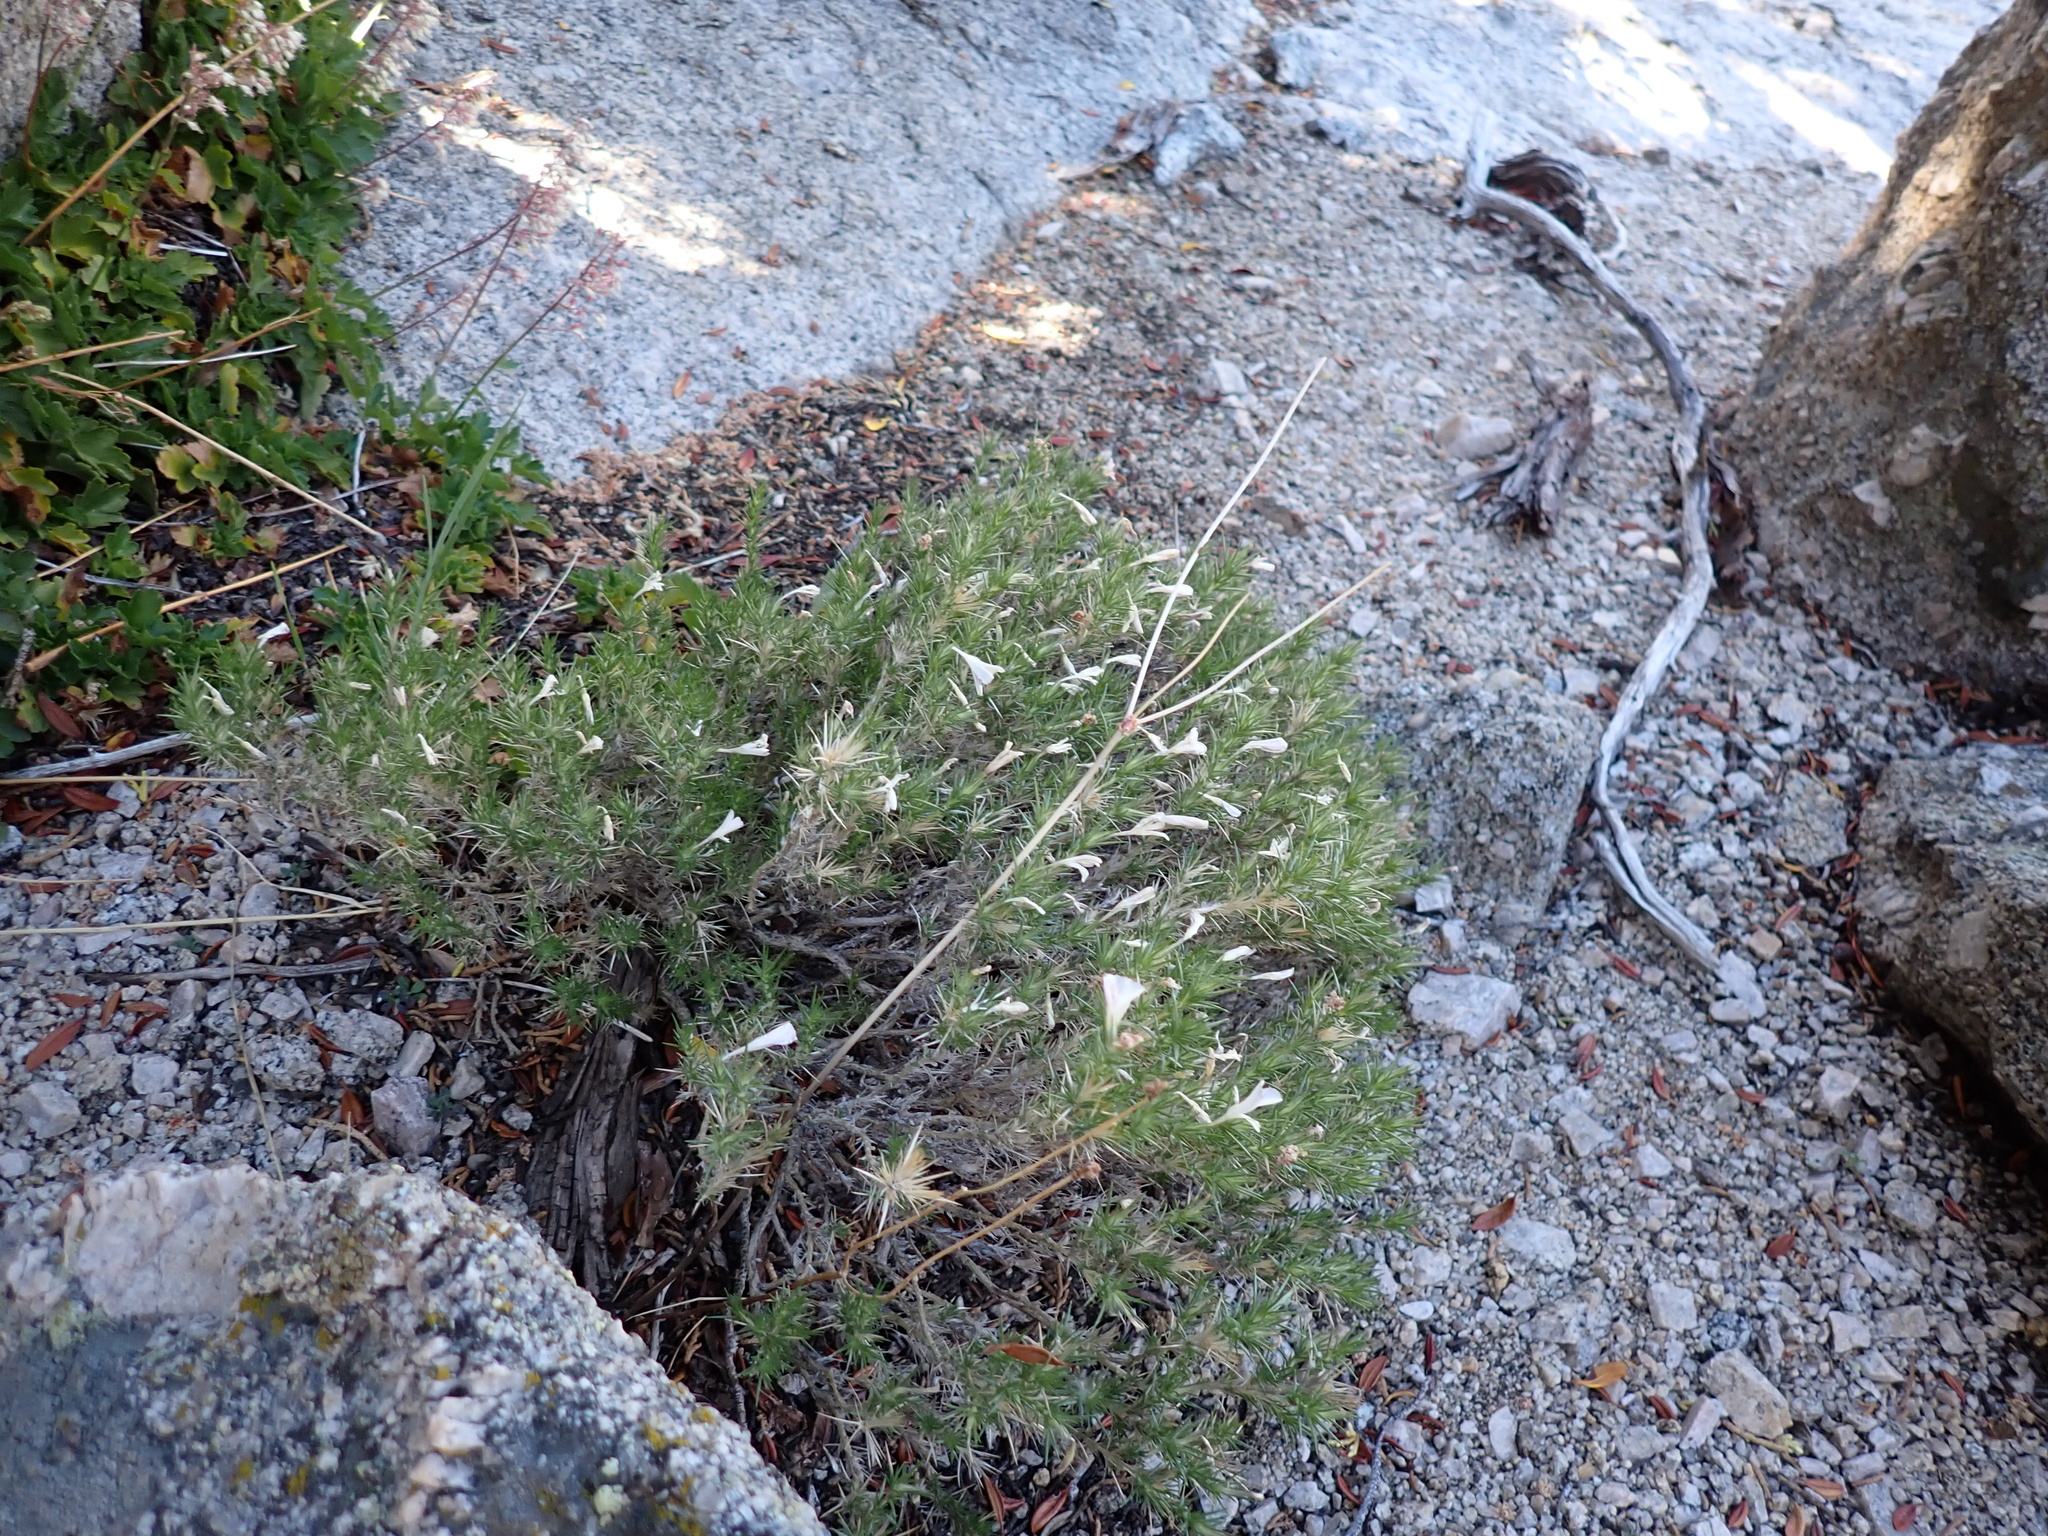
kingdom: Plantae
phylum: Tracheophyta
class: Magnoliopsida
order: Ericales
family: Polemoniaceae
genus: Linanthus
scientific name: Linanthus pungens
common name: Granite prickly phlox
